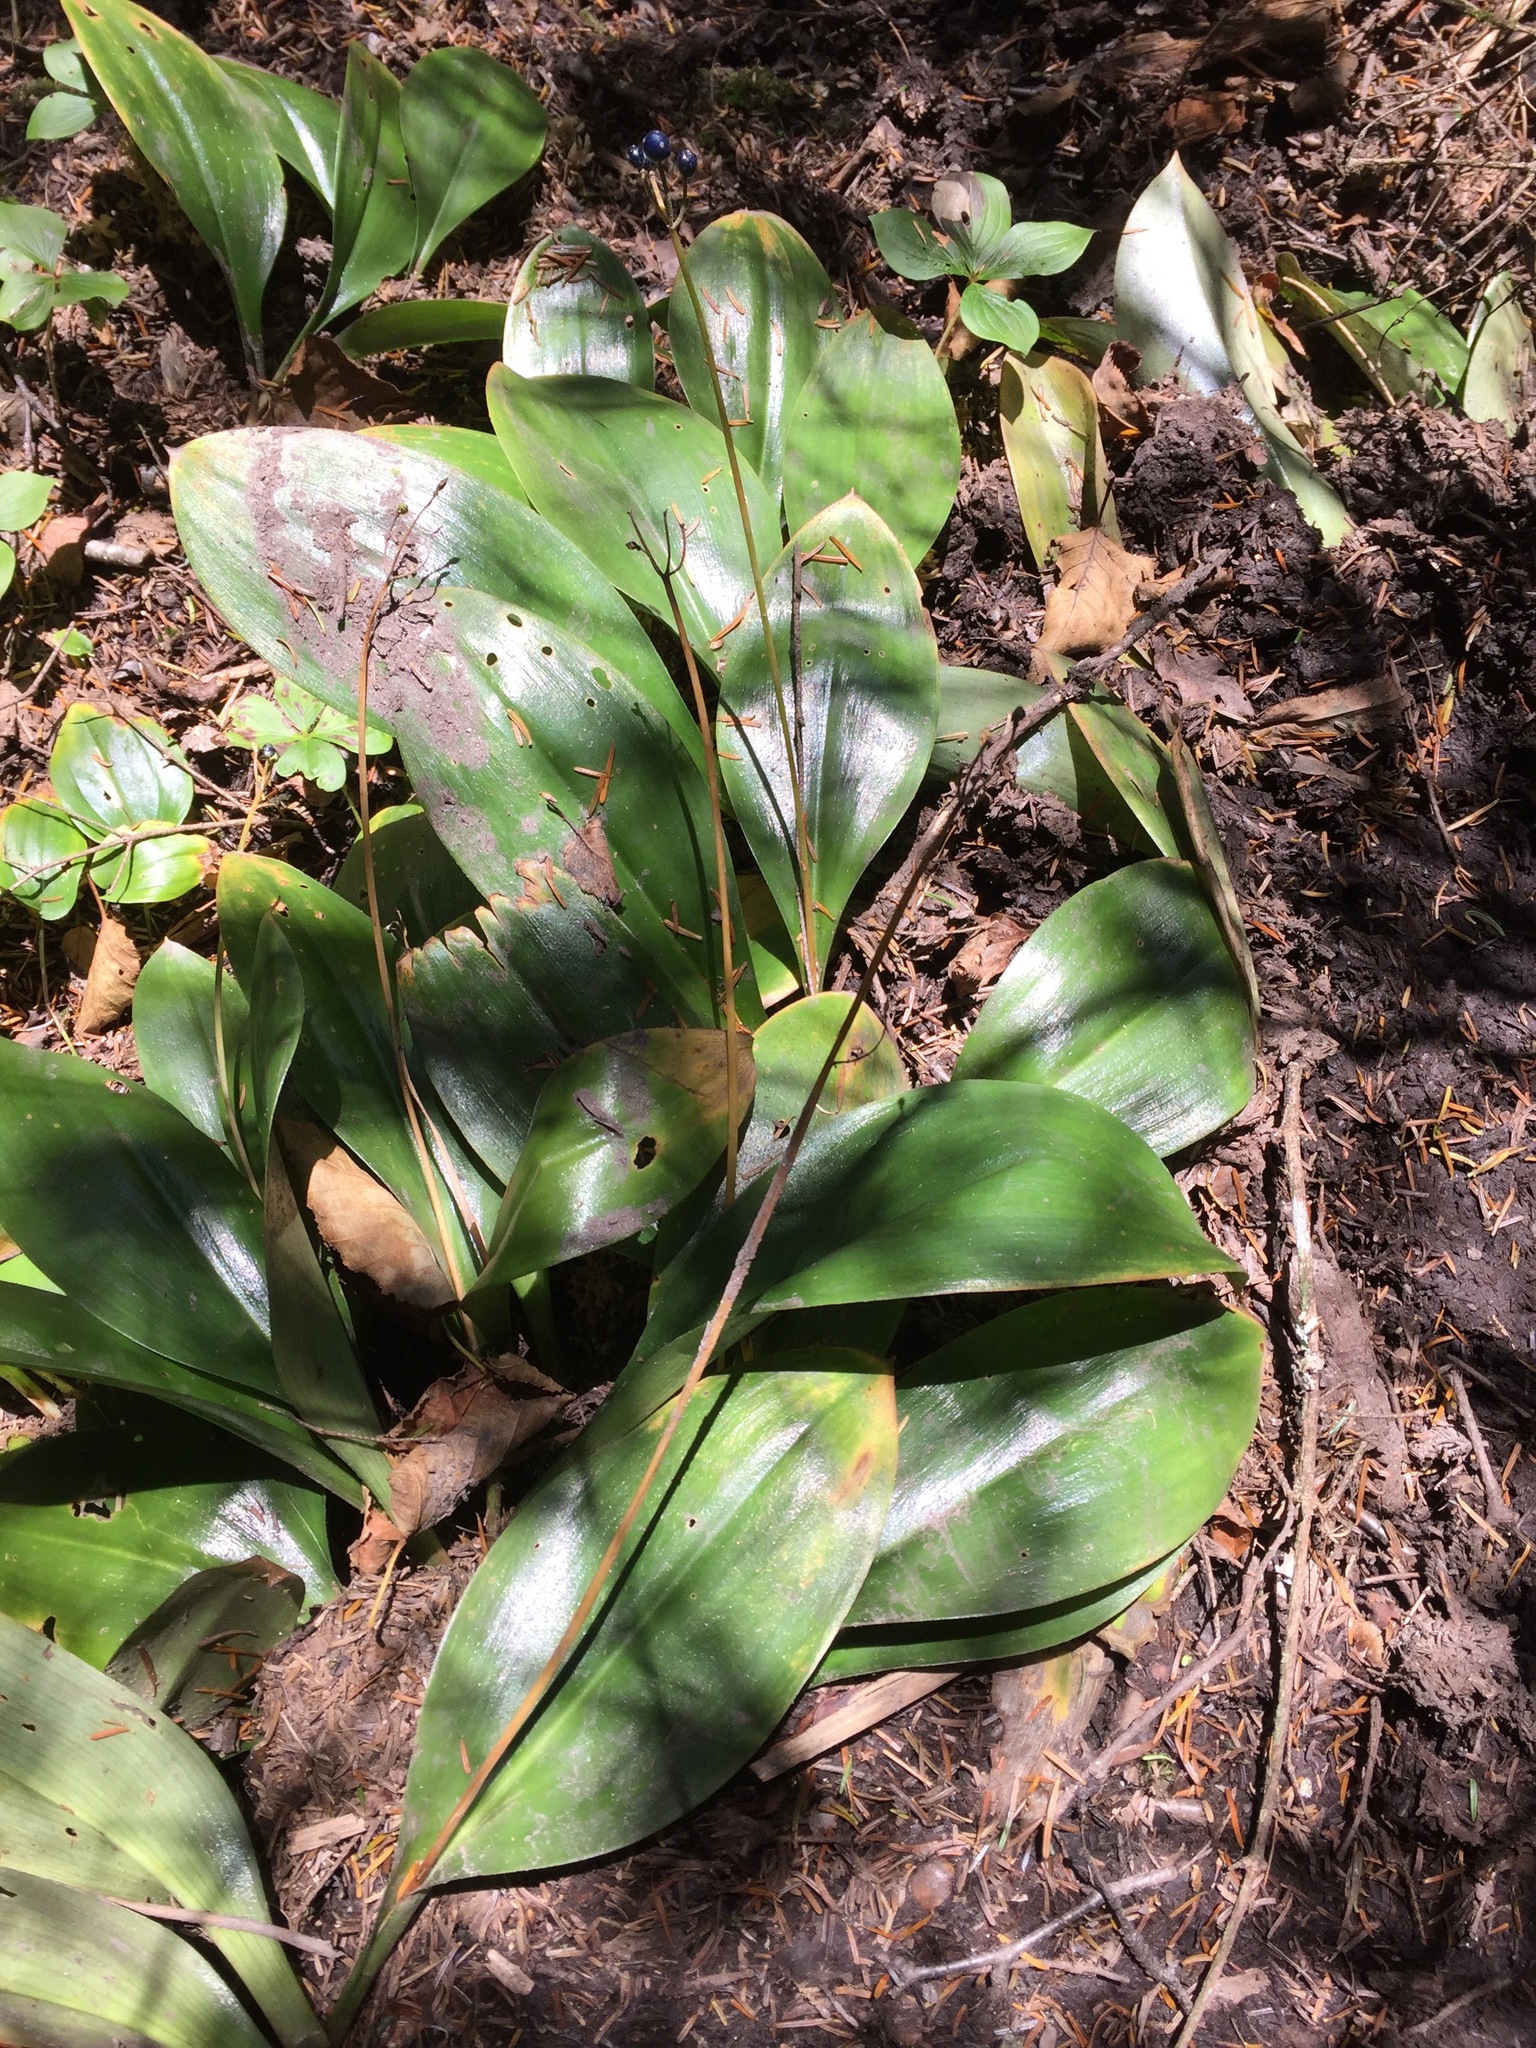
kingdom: Plantae
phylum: Tracheophyta
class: Liliopsida
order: Liliales
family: Liliaceae
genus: Clintonia
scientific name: Clintonia borealis
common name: Yellow clintonia
